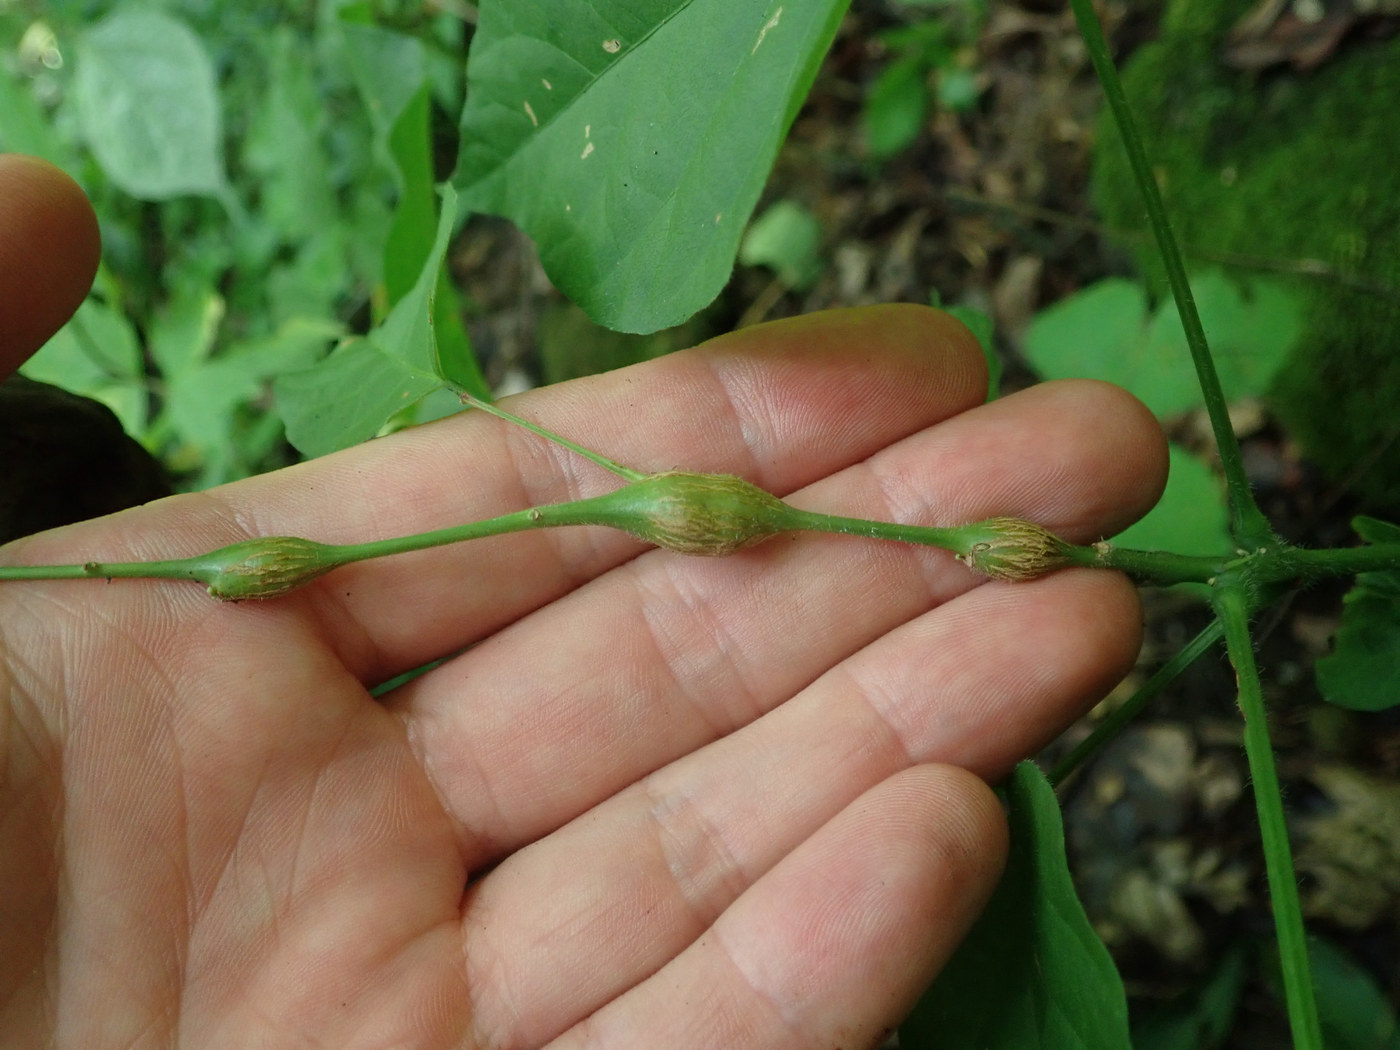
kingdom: Animalia
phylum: Arthropoda
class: Insecta
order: Diptera
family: Cecidomyiidae
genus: Neolasioptera
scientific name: Neolasioptera desmodii
